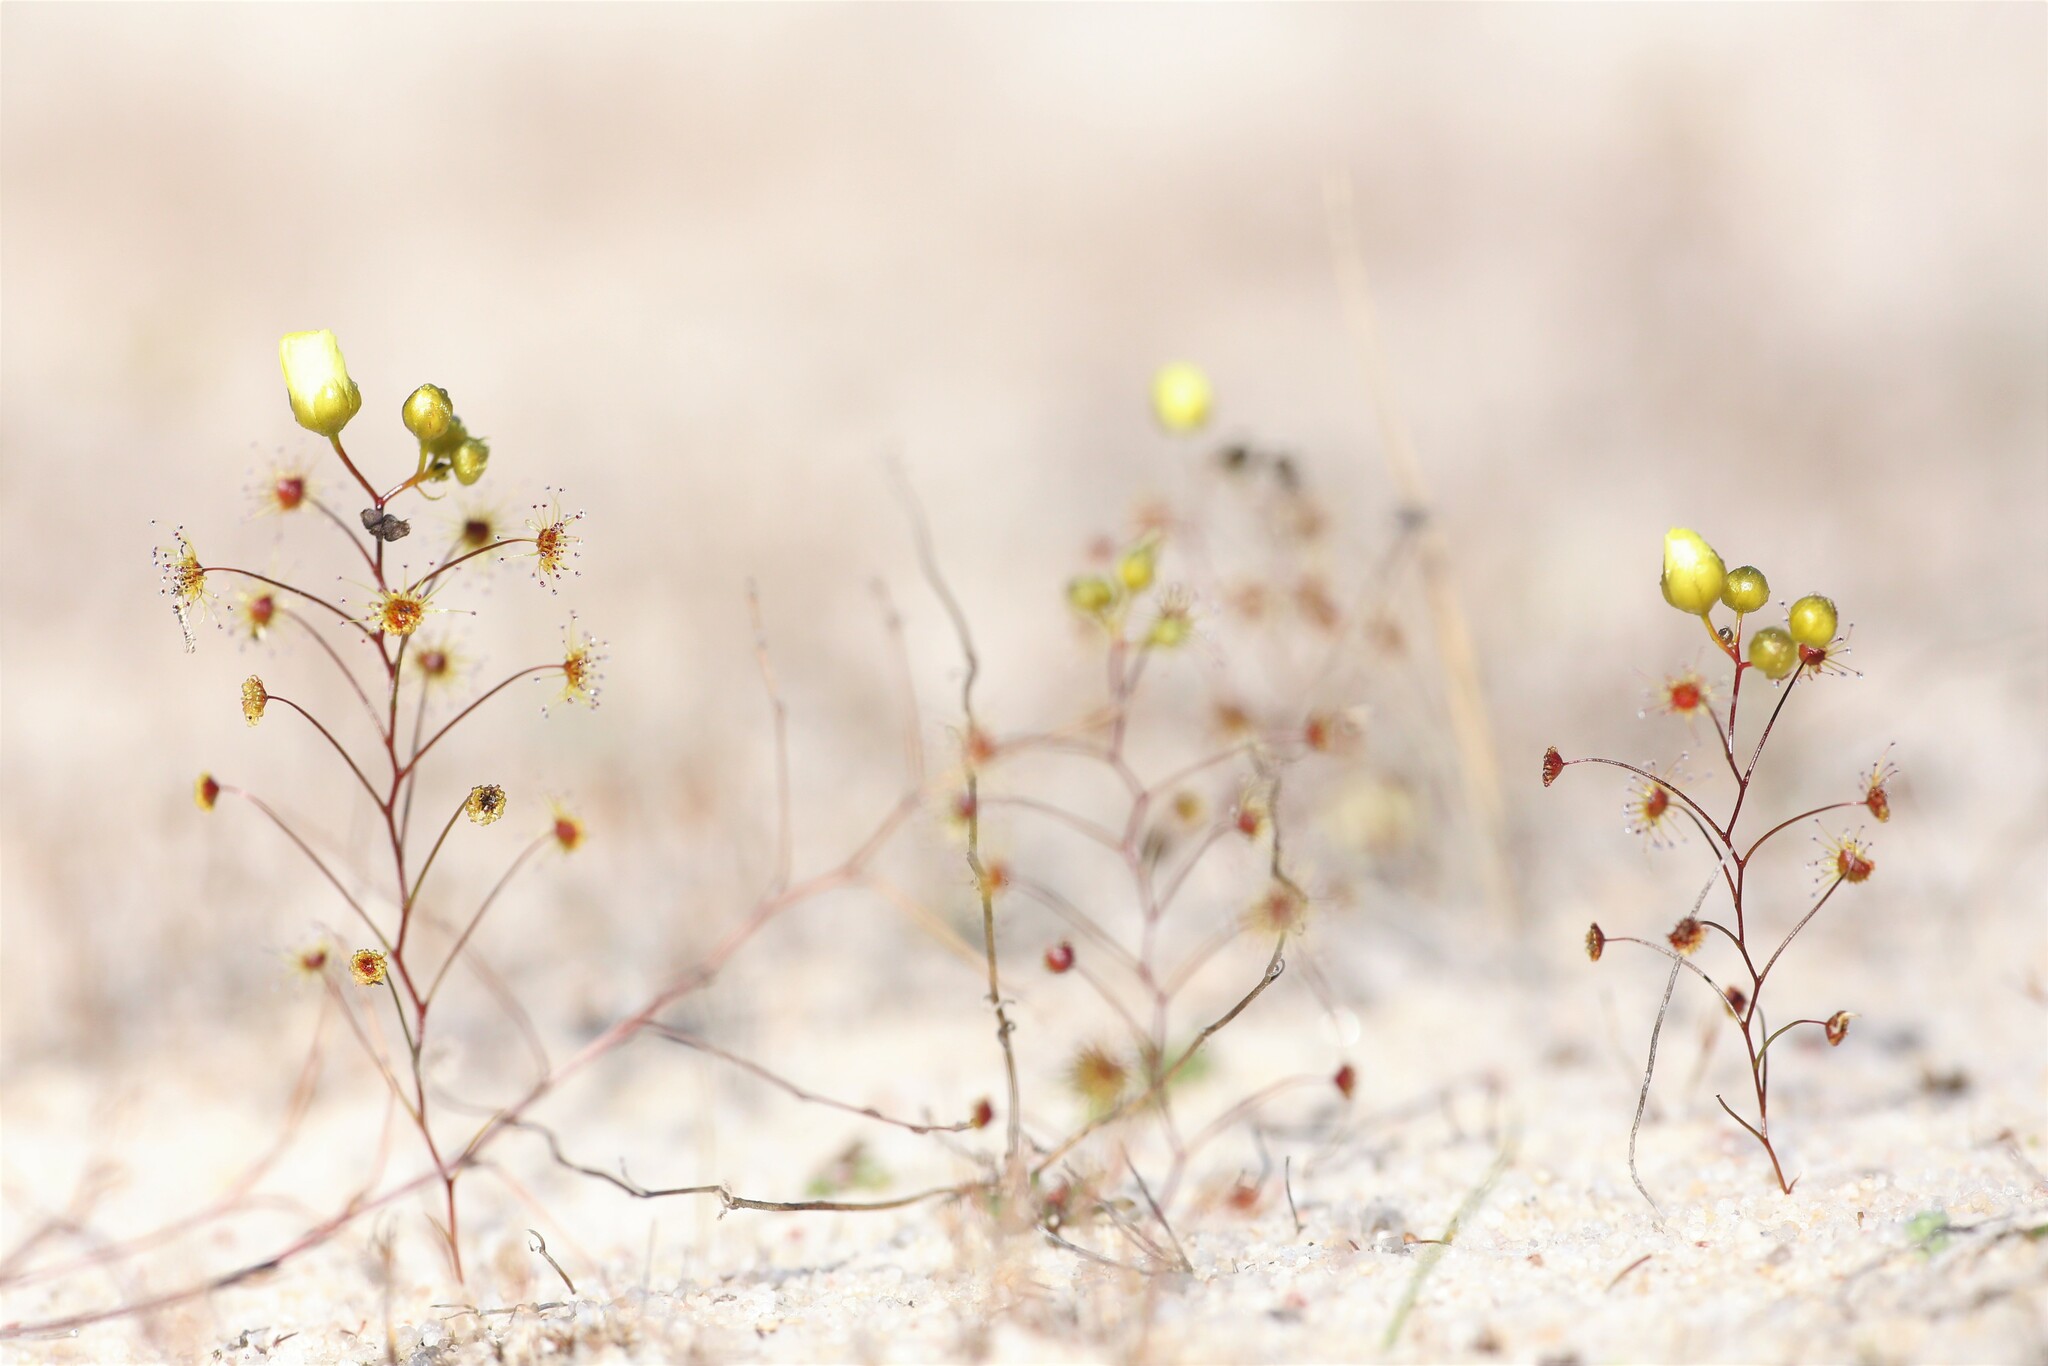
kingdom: Plantae
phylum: Tracheophyta
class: Magnoliopsida
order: Caryophyllales
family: Droseraceae
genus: Drosera
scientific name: Drosera zigzagia
